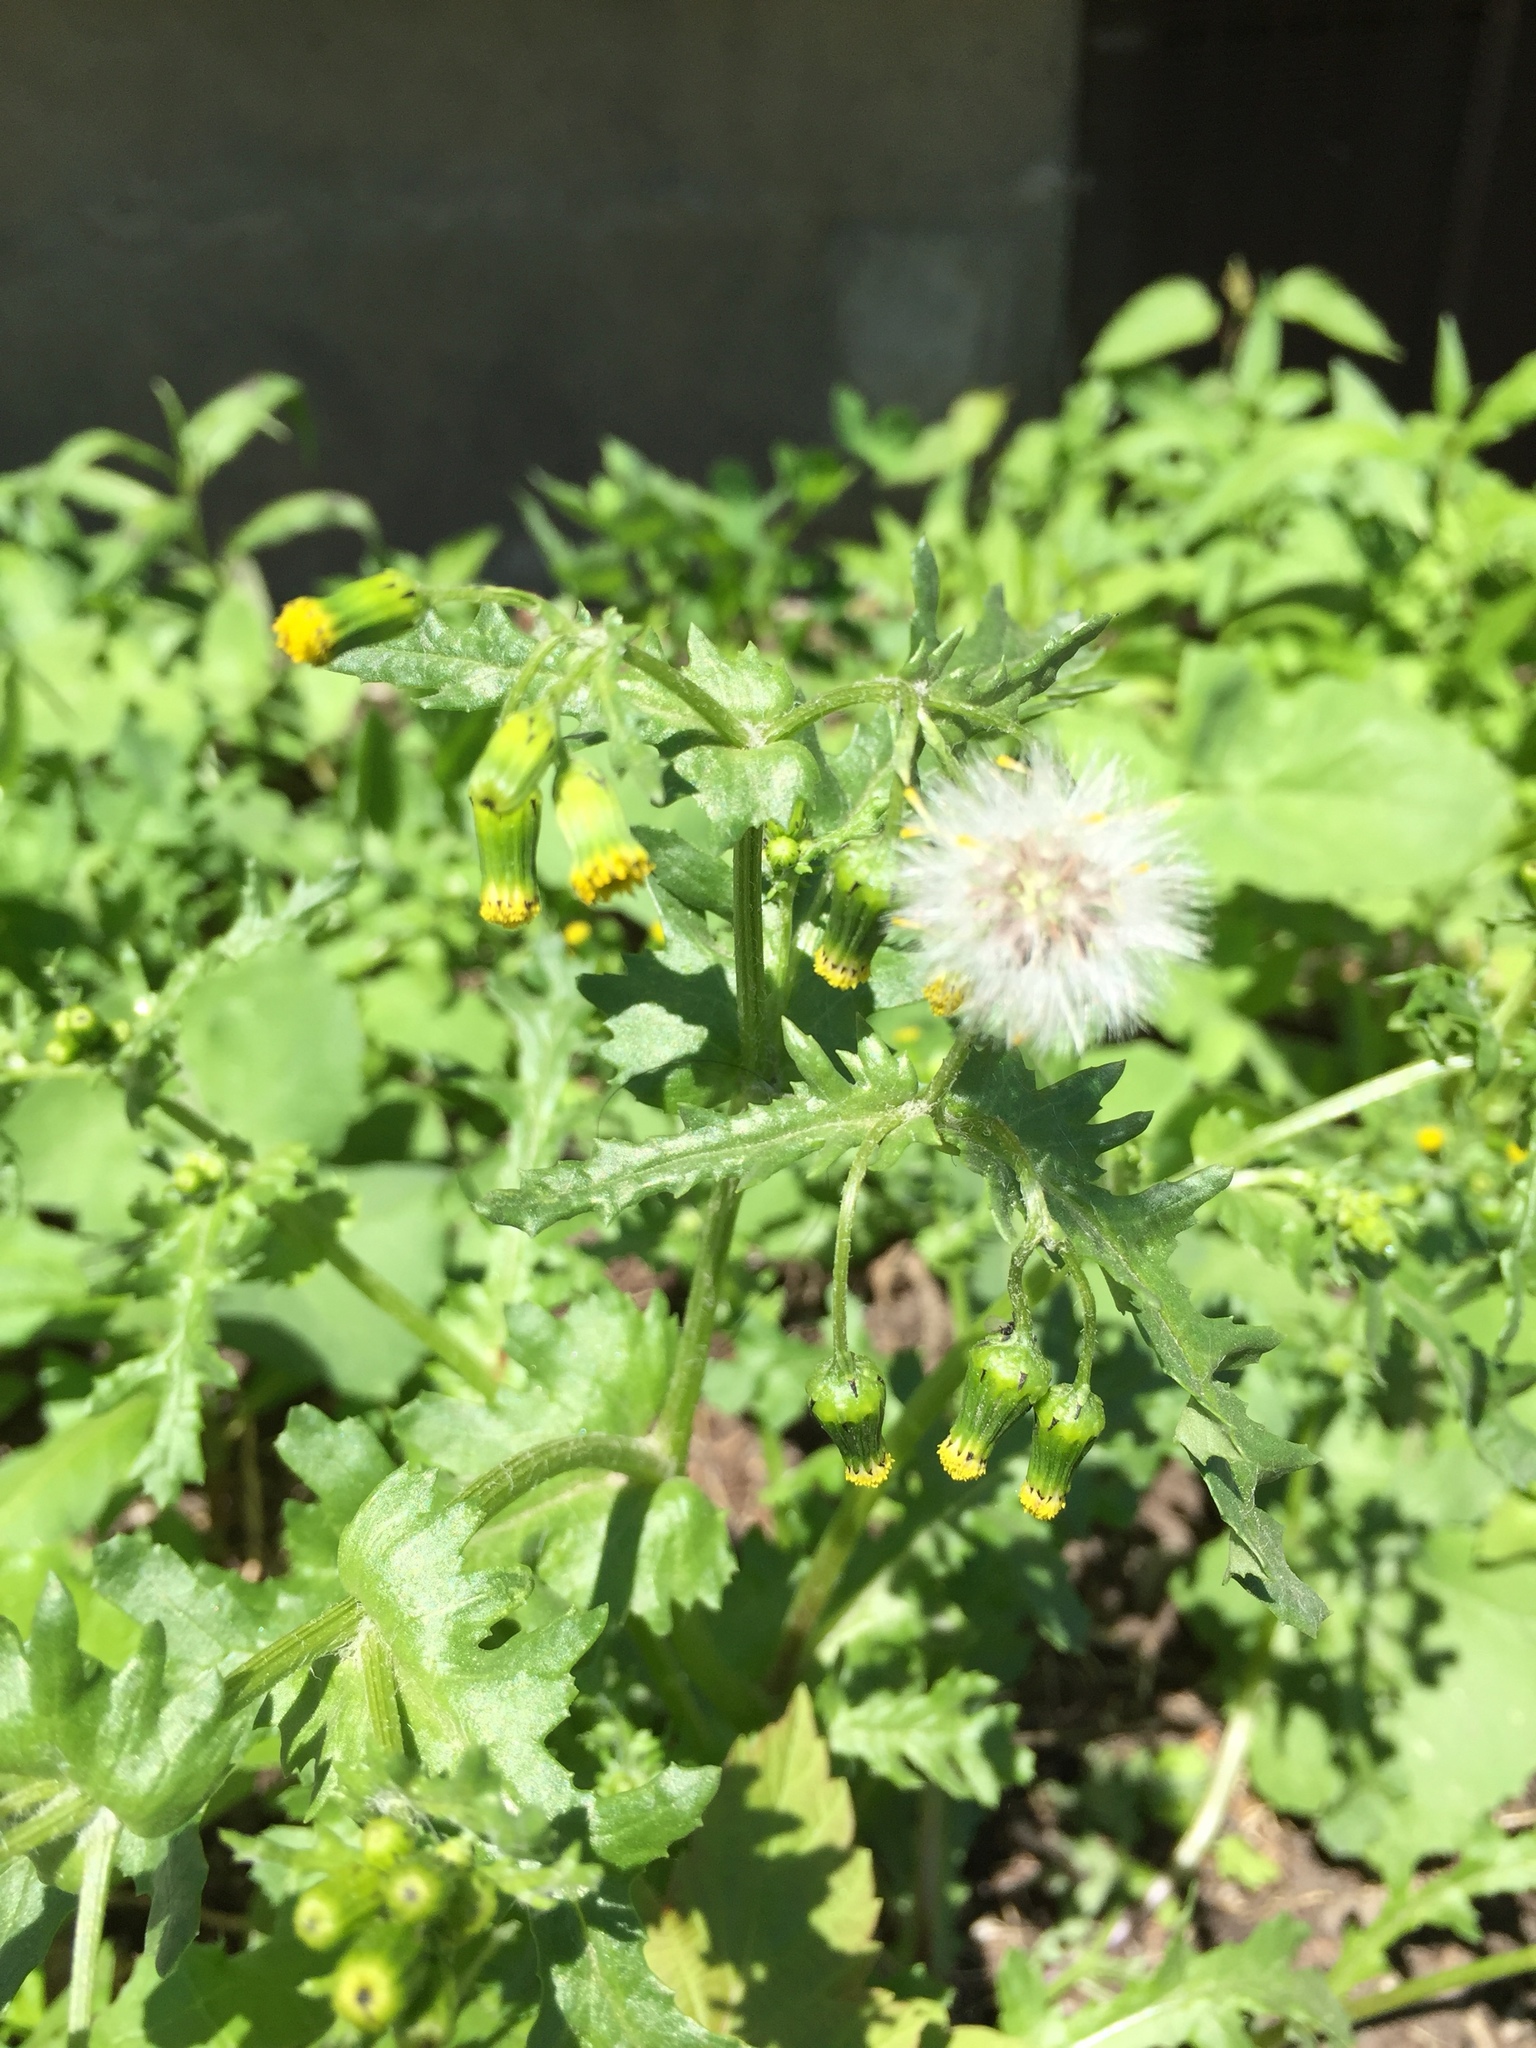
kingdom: Plantae
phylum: Tracheophyta
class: Magnoliopsida
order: Asterales
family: Asteraceae
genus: Senecio
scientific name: Senecio vulgaris
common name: Old-man-in-the-spring
